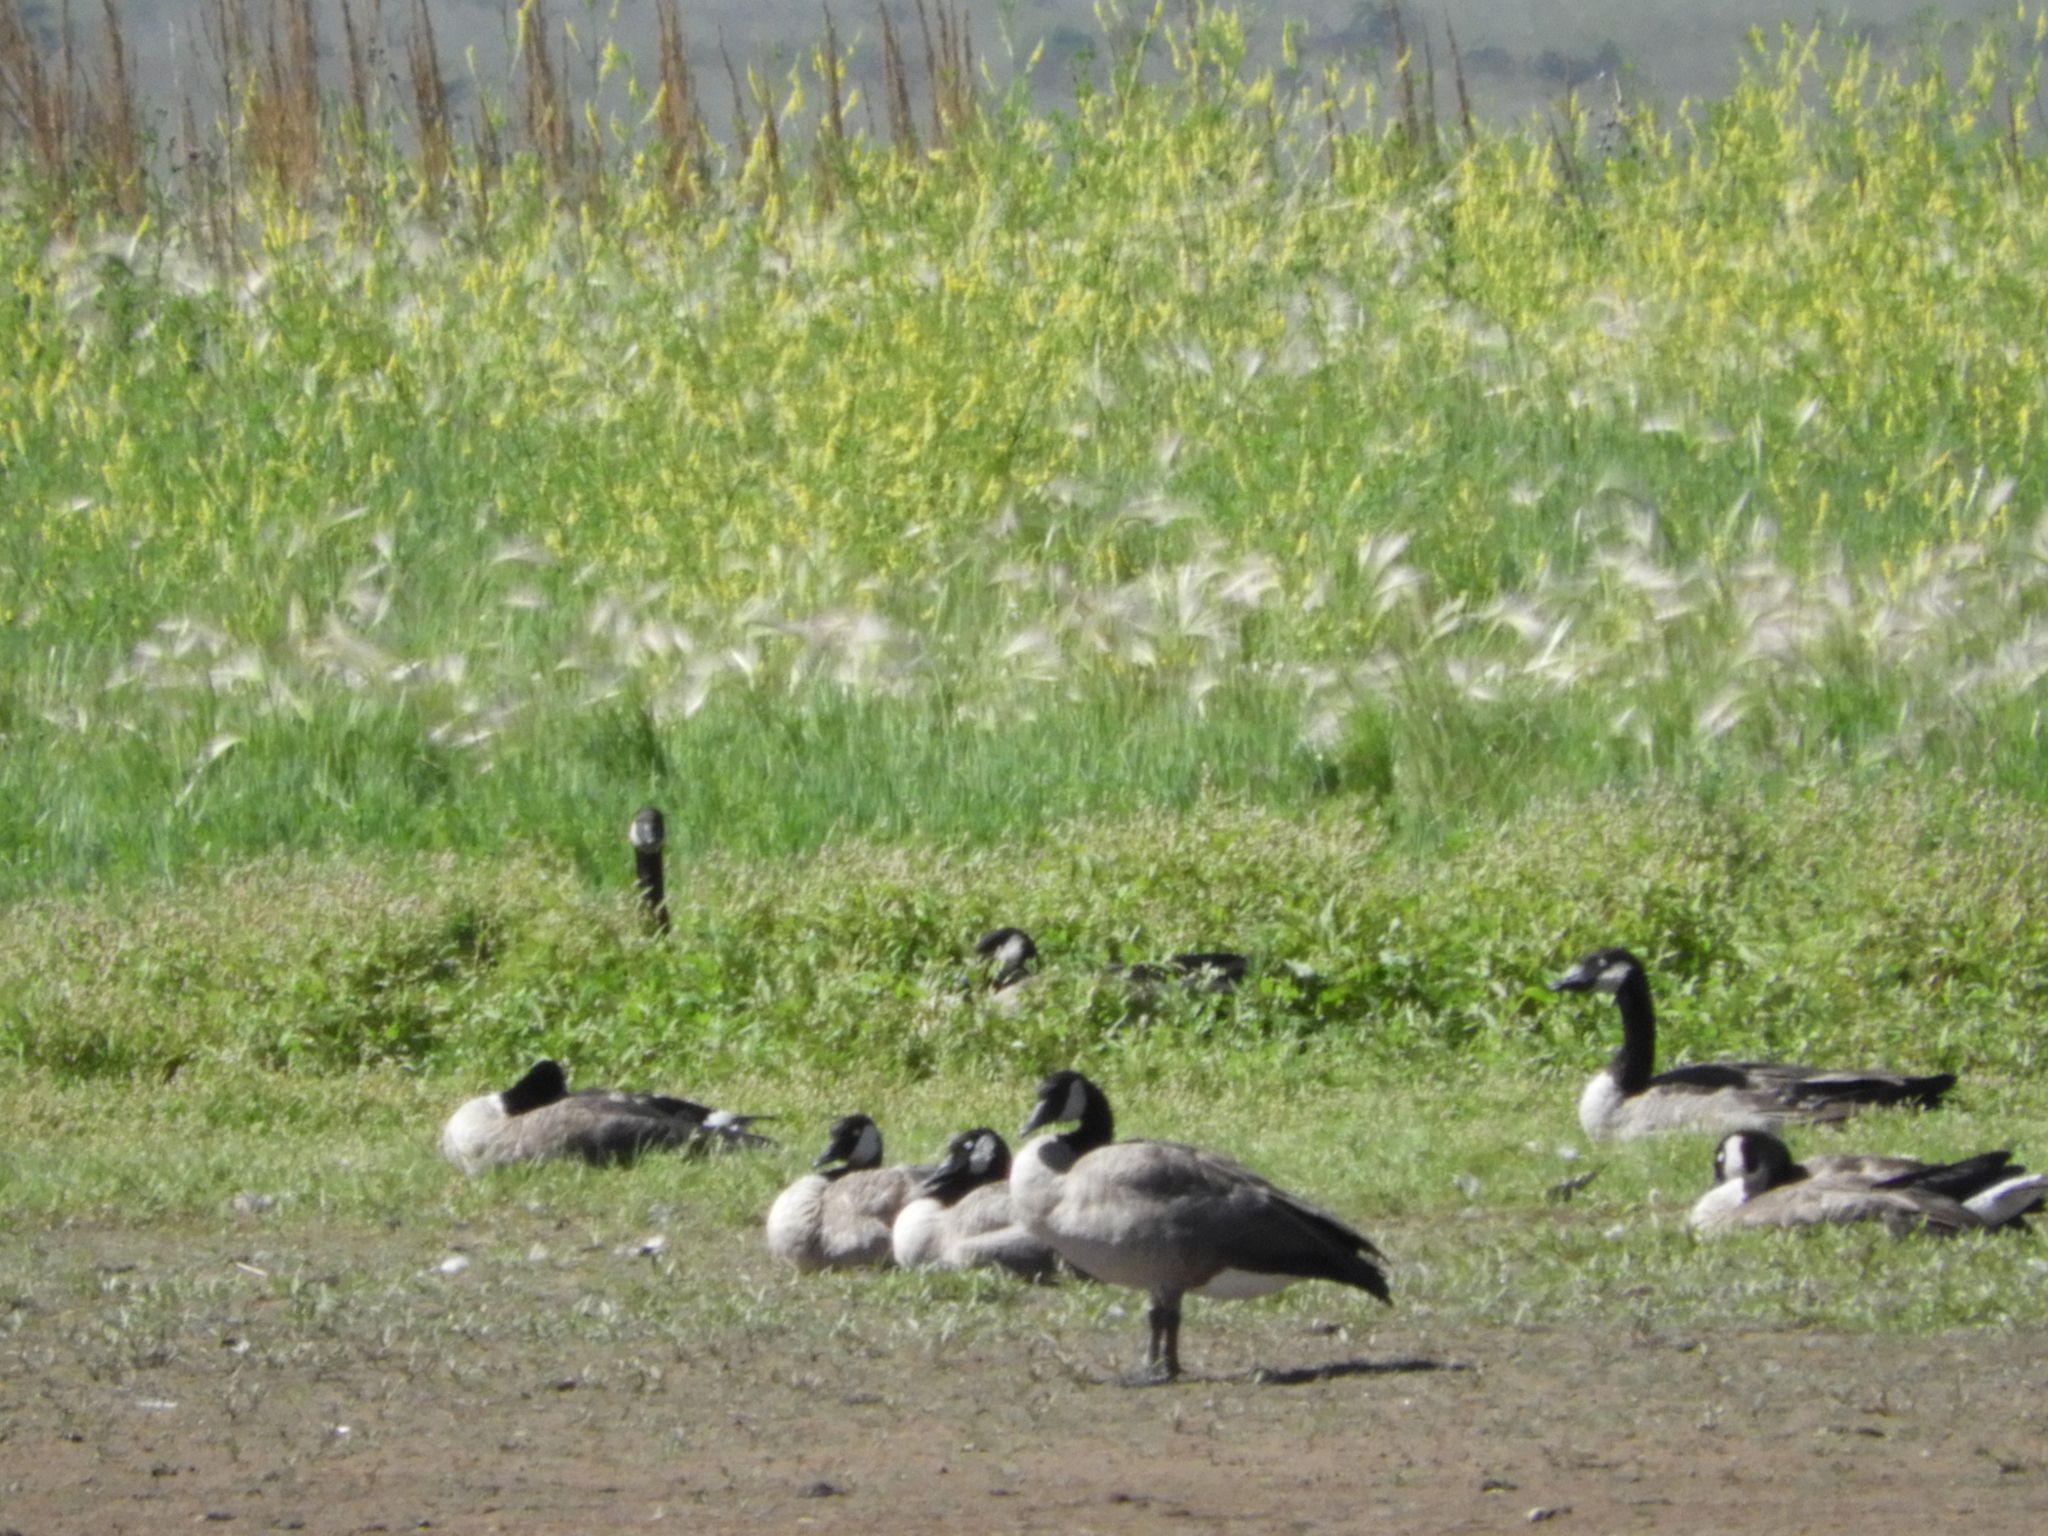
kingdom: Animalia
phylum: Chordata
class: Aves
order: Anseriformes
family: Anatidae
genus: Branta
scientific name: Branta canadensis
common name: Canada goose
